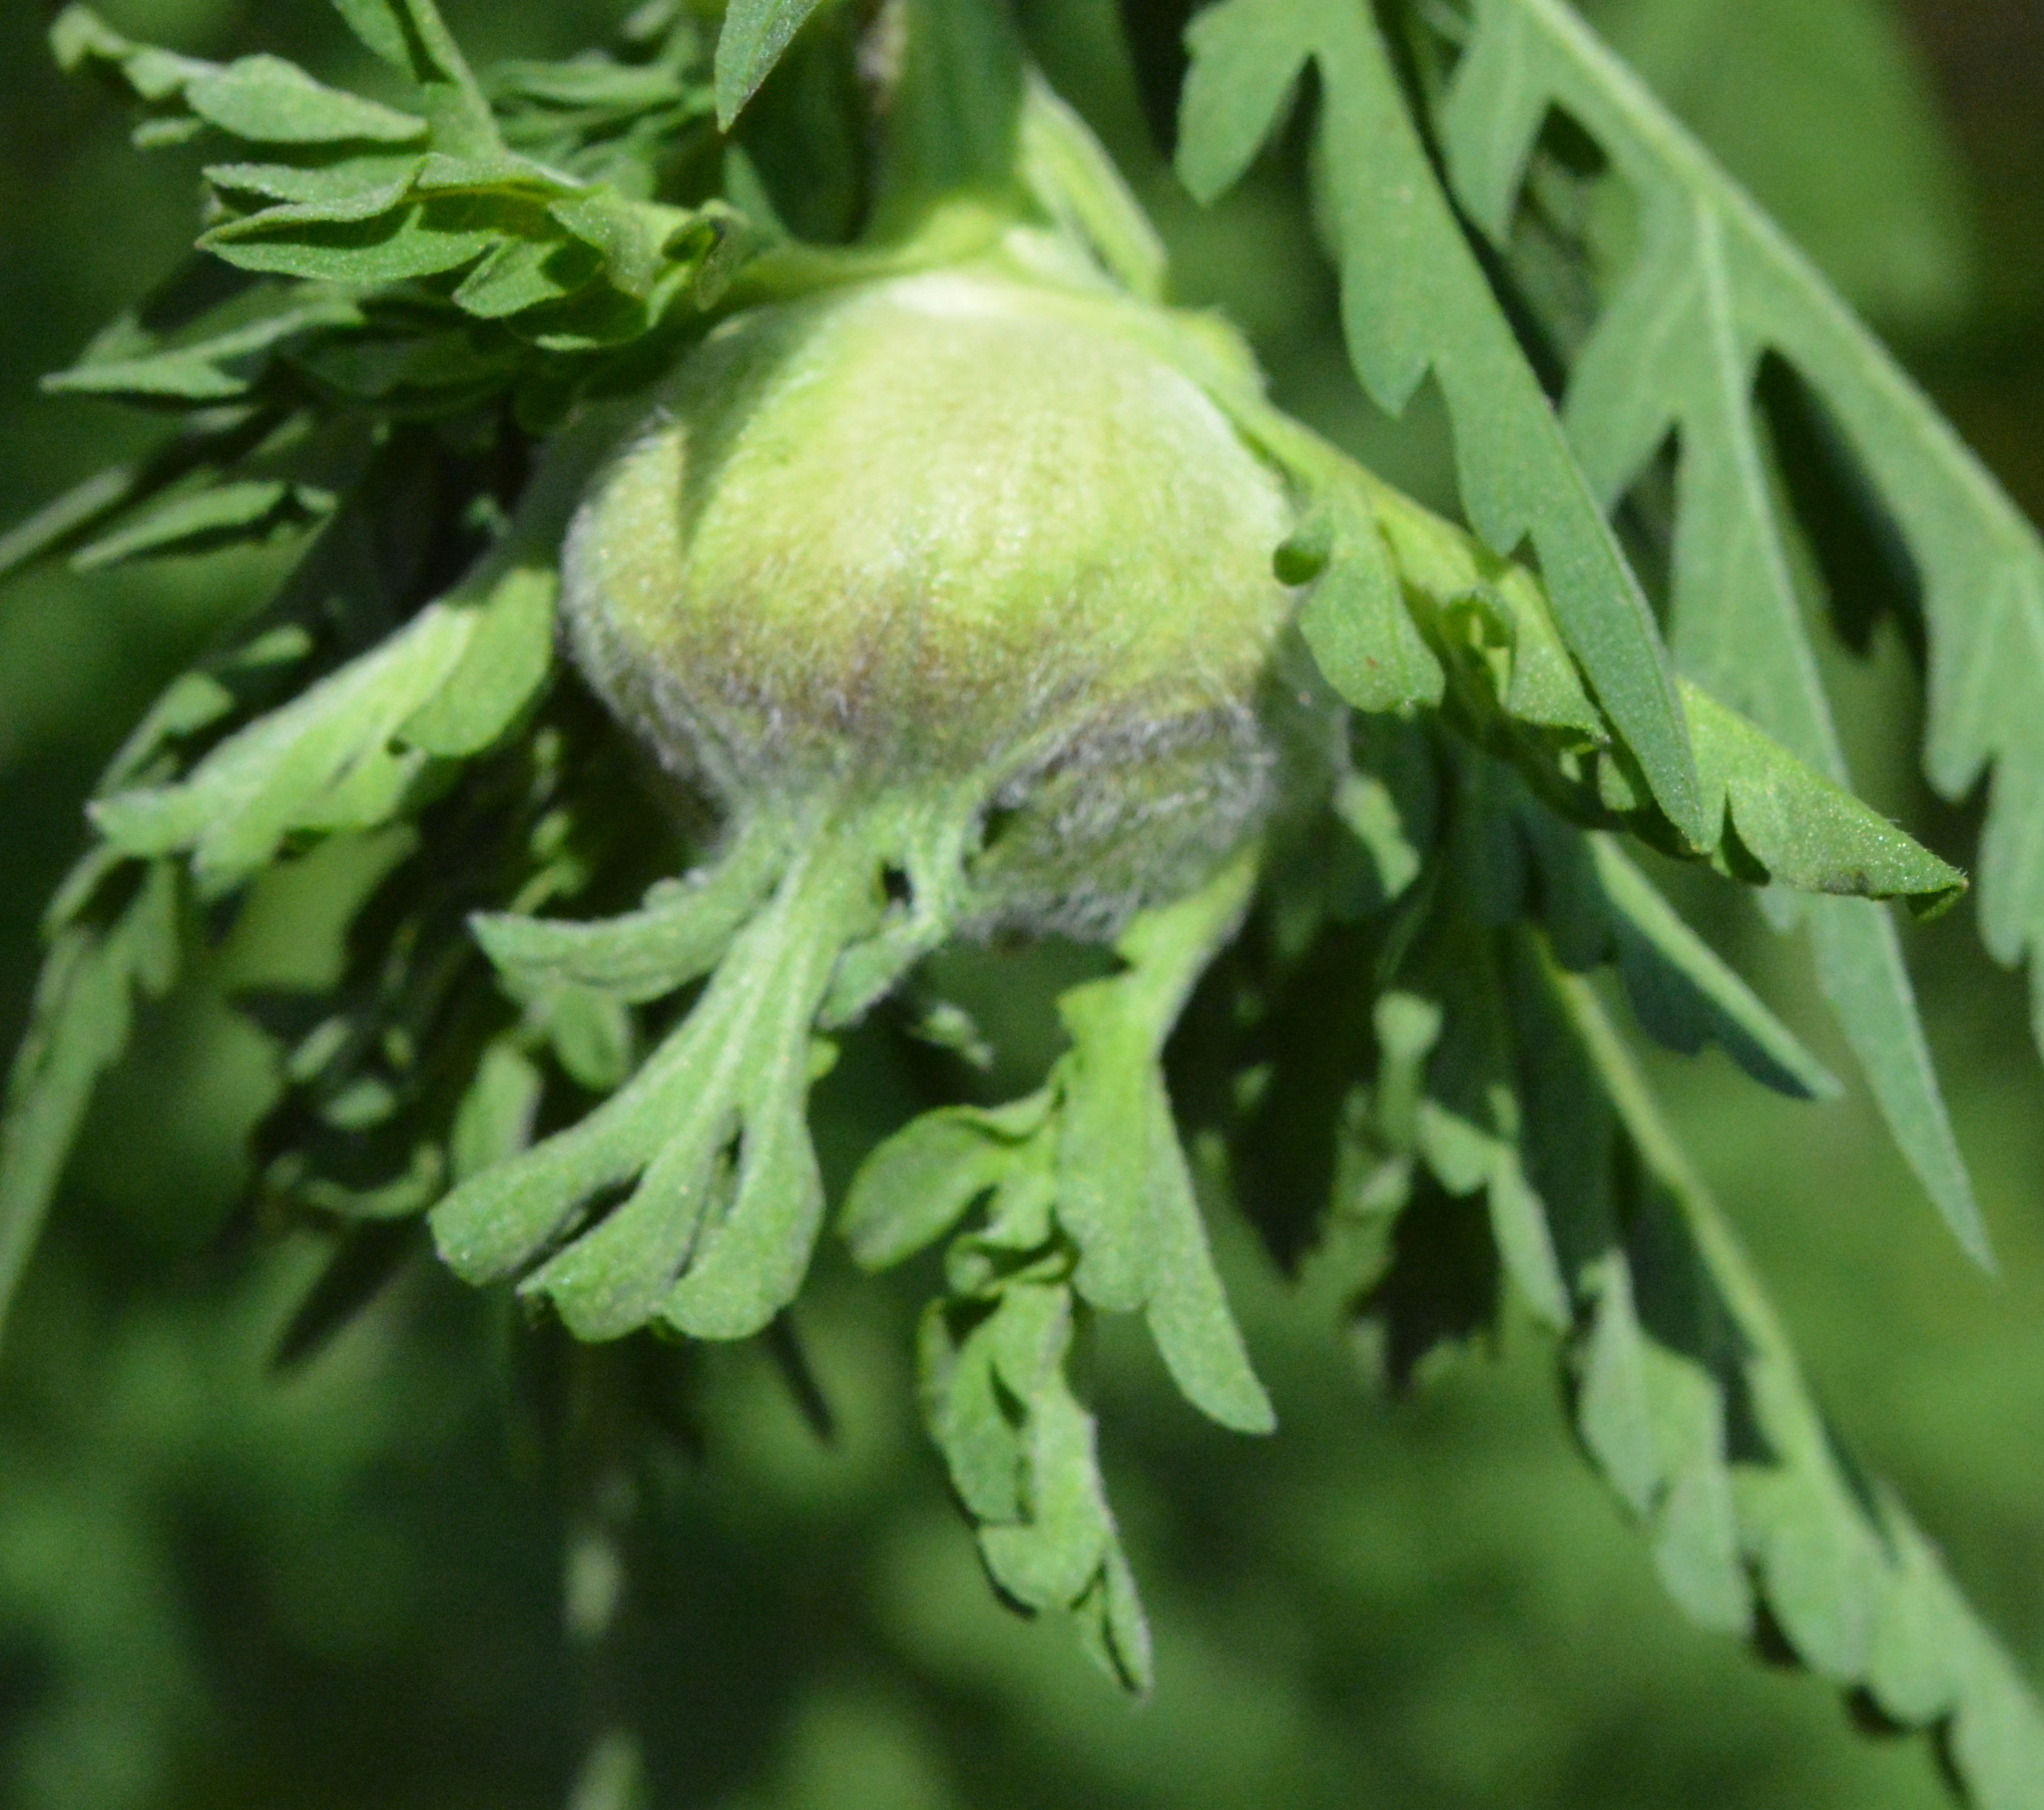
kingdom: Animalia
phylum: Arthropoda
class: Insecta
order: Diptera
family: Cecidomyiidae
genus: Asphondylia
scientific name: Asphondylia ambrosiae
